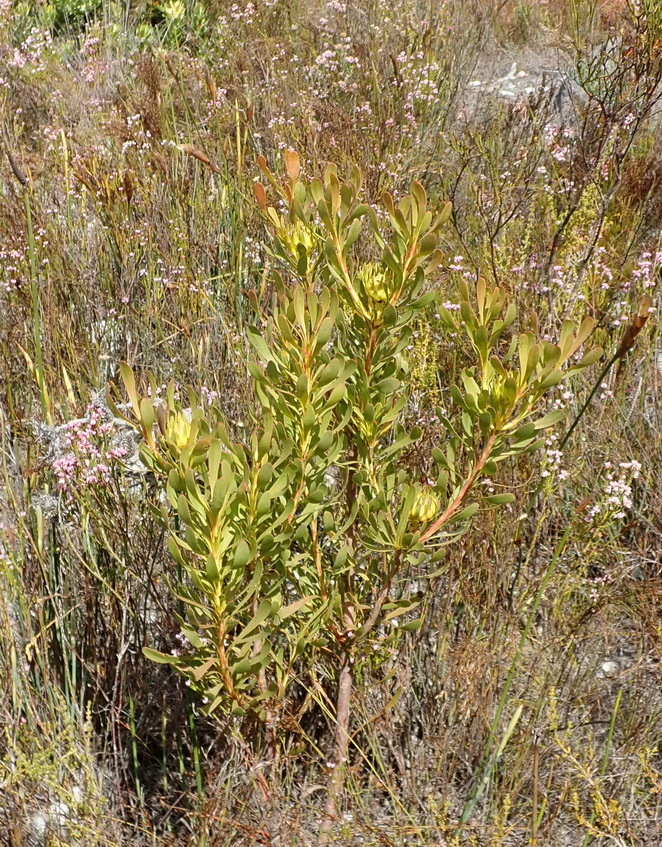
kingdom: Plantae
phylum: Tracheophyta
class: Magnoliopsida
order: Proteales
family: Proteaceae
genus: Aulax
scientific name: Aulax umbellata
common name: Broad-leaf featherbush
